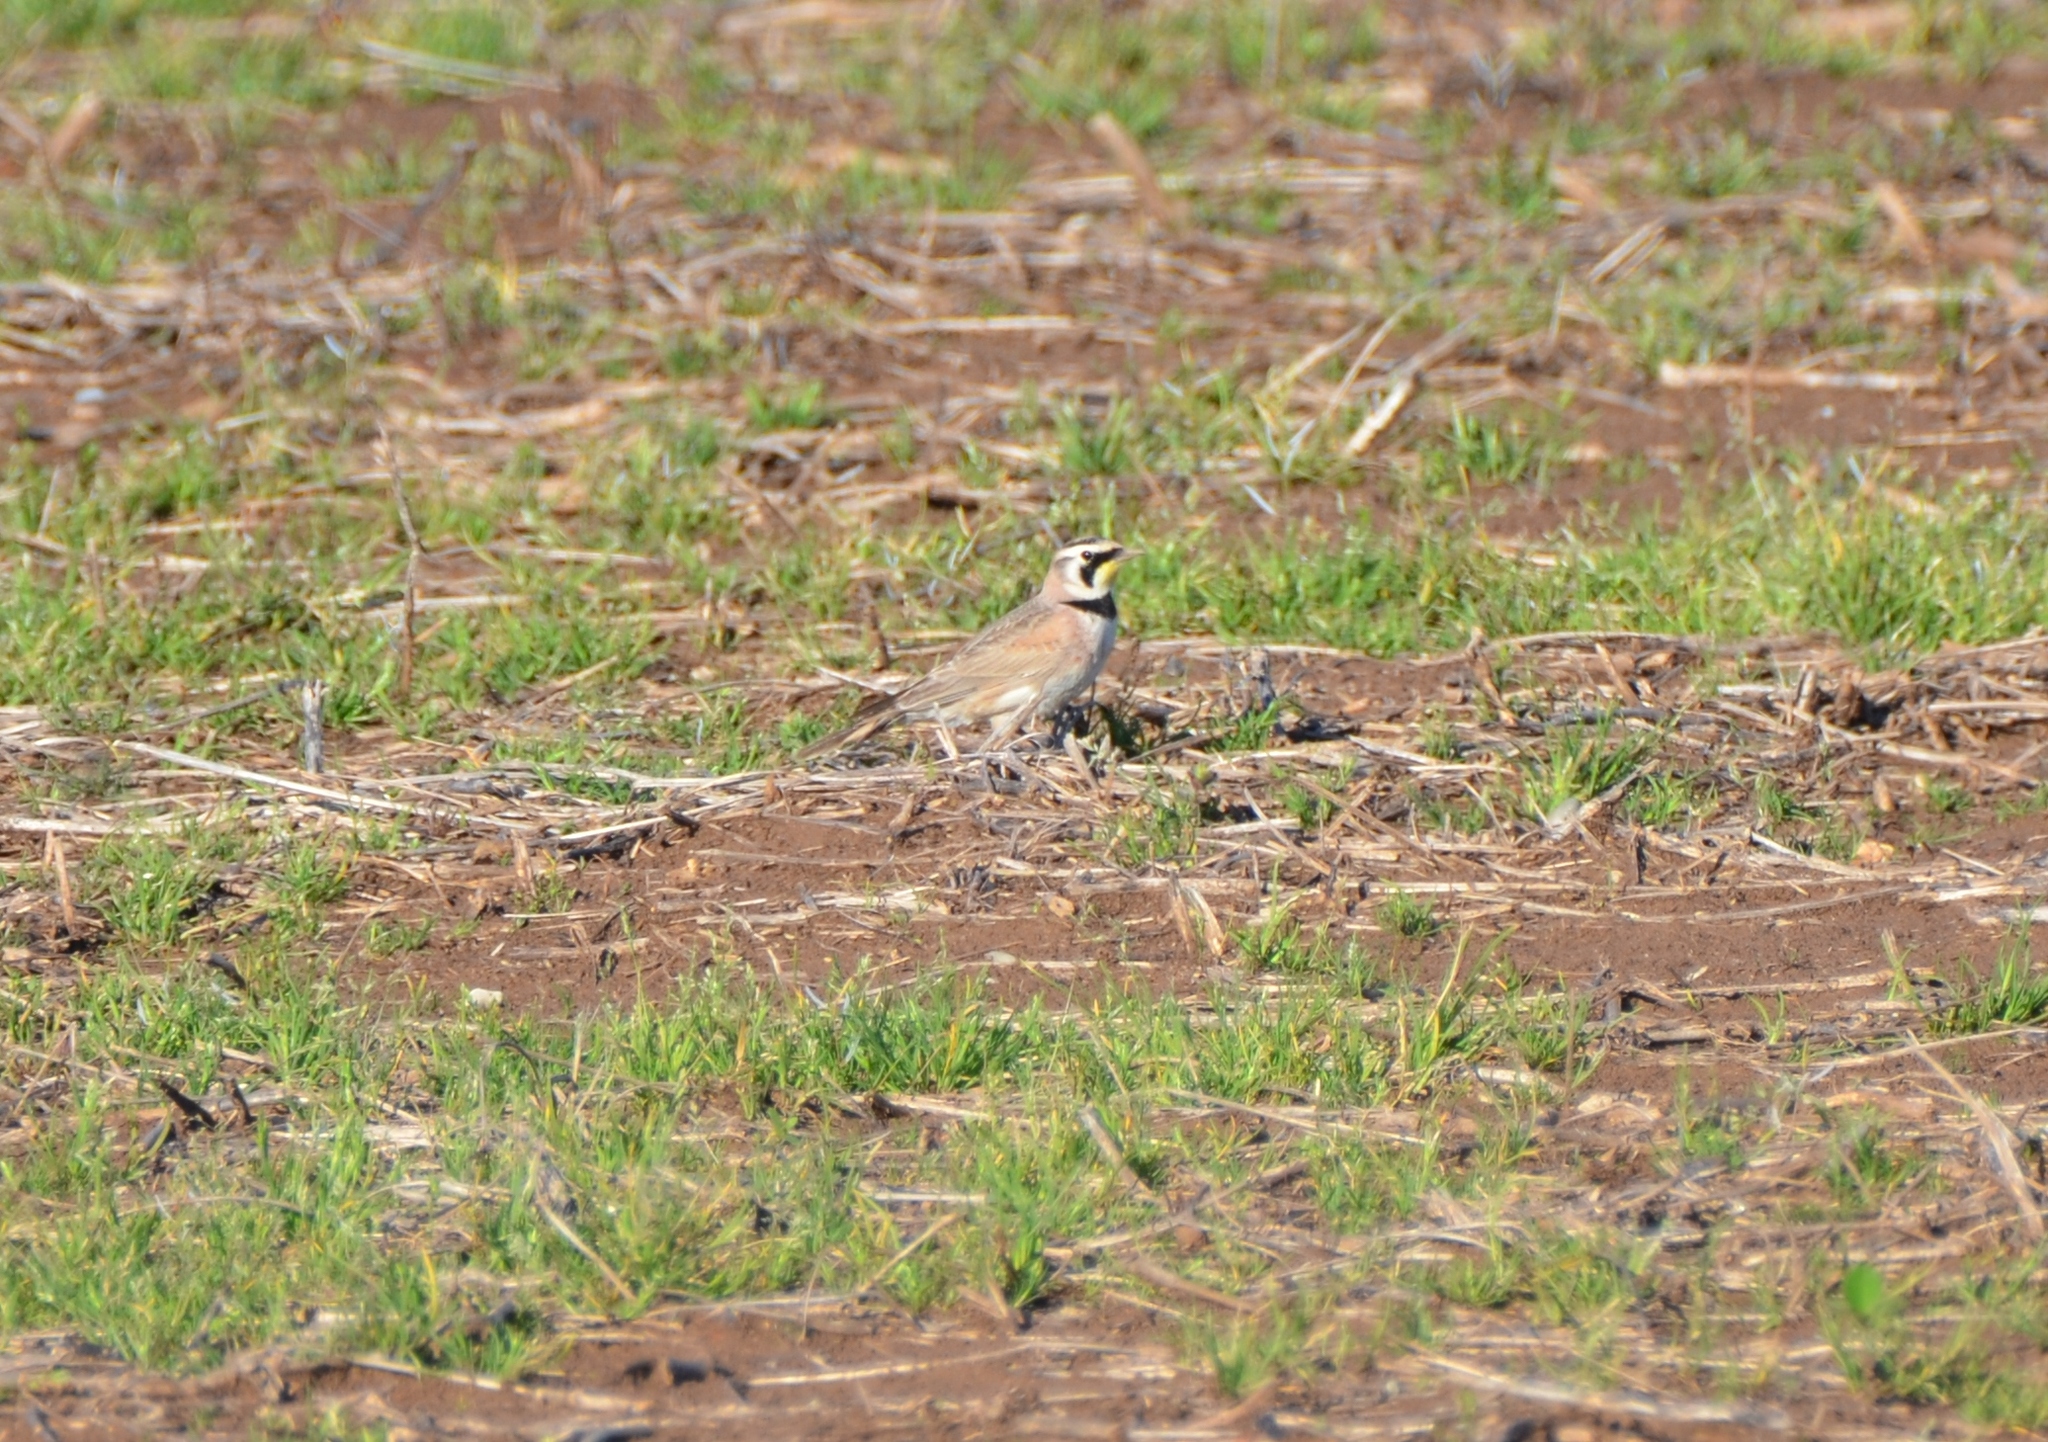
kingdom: Animalia
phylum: Chordata
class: Aves
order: Passeriformes
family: Alaudidae
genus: Eremophila
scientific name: Eremophila alpestris
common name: Horned lark
